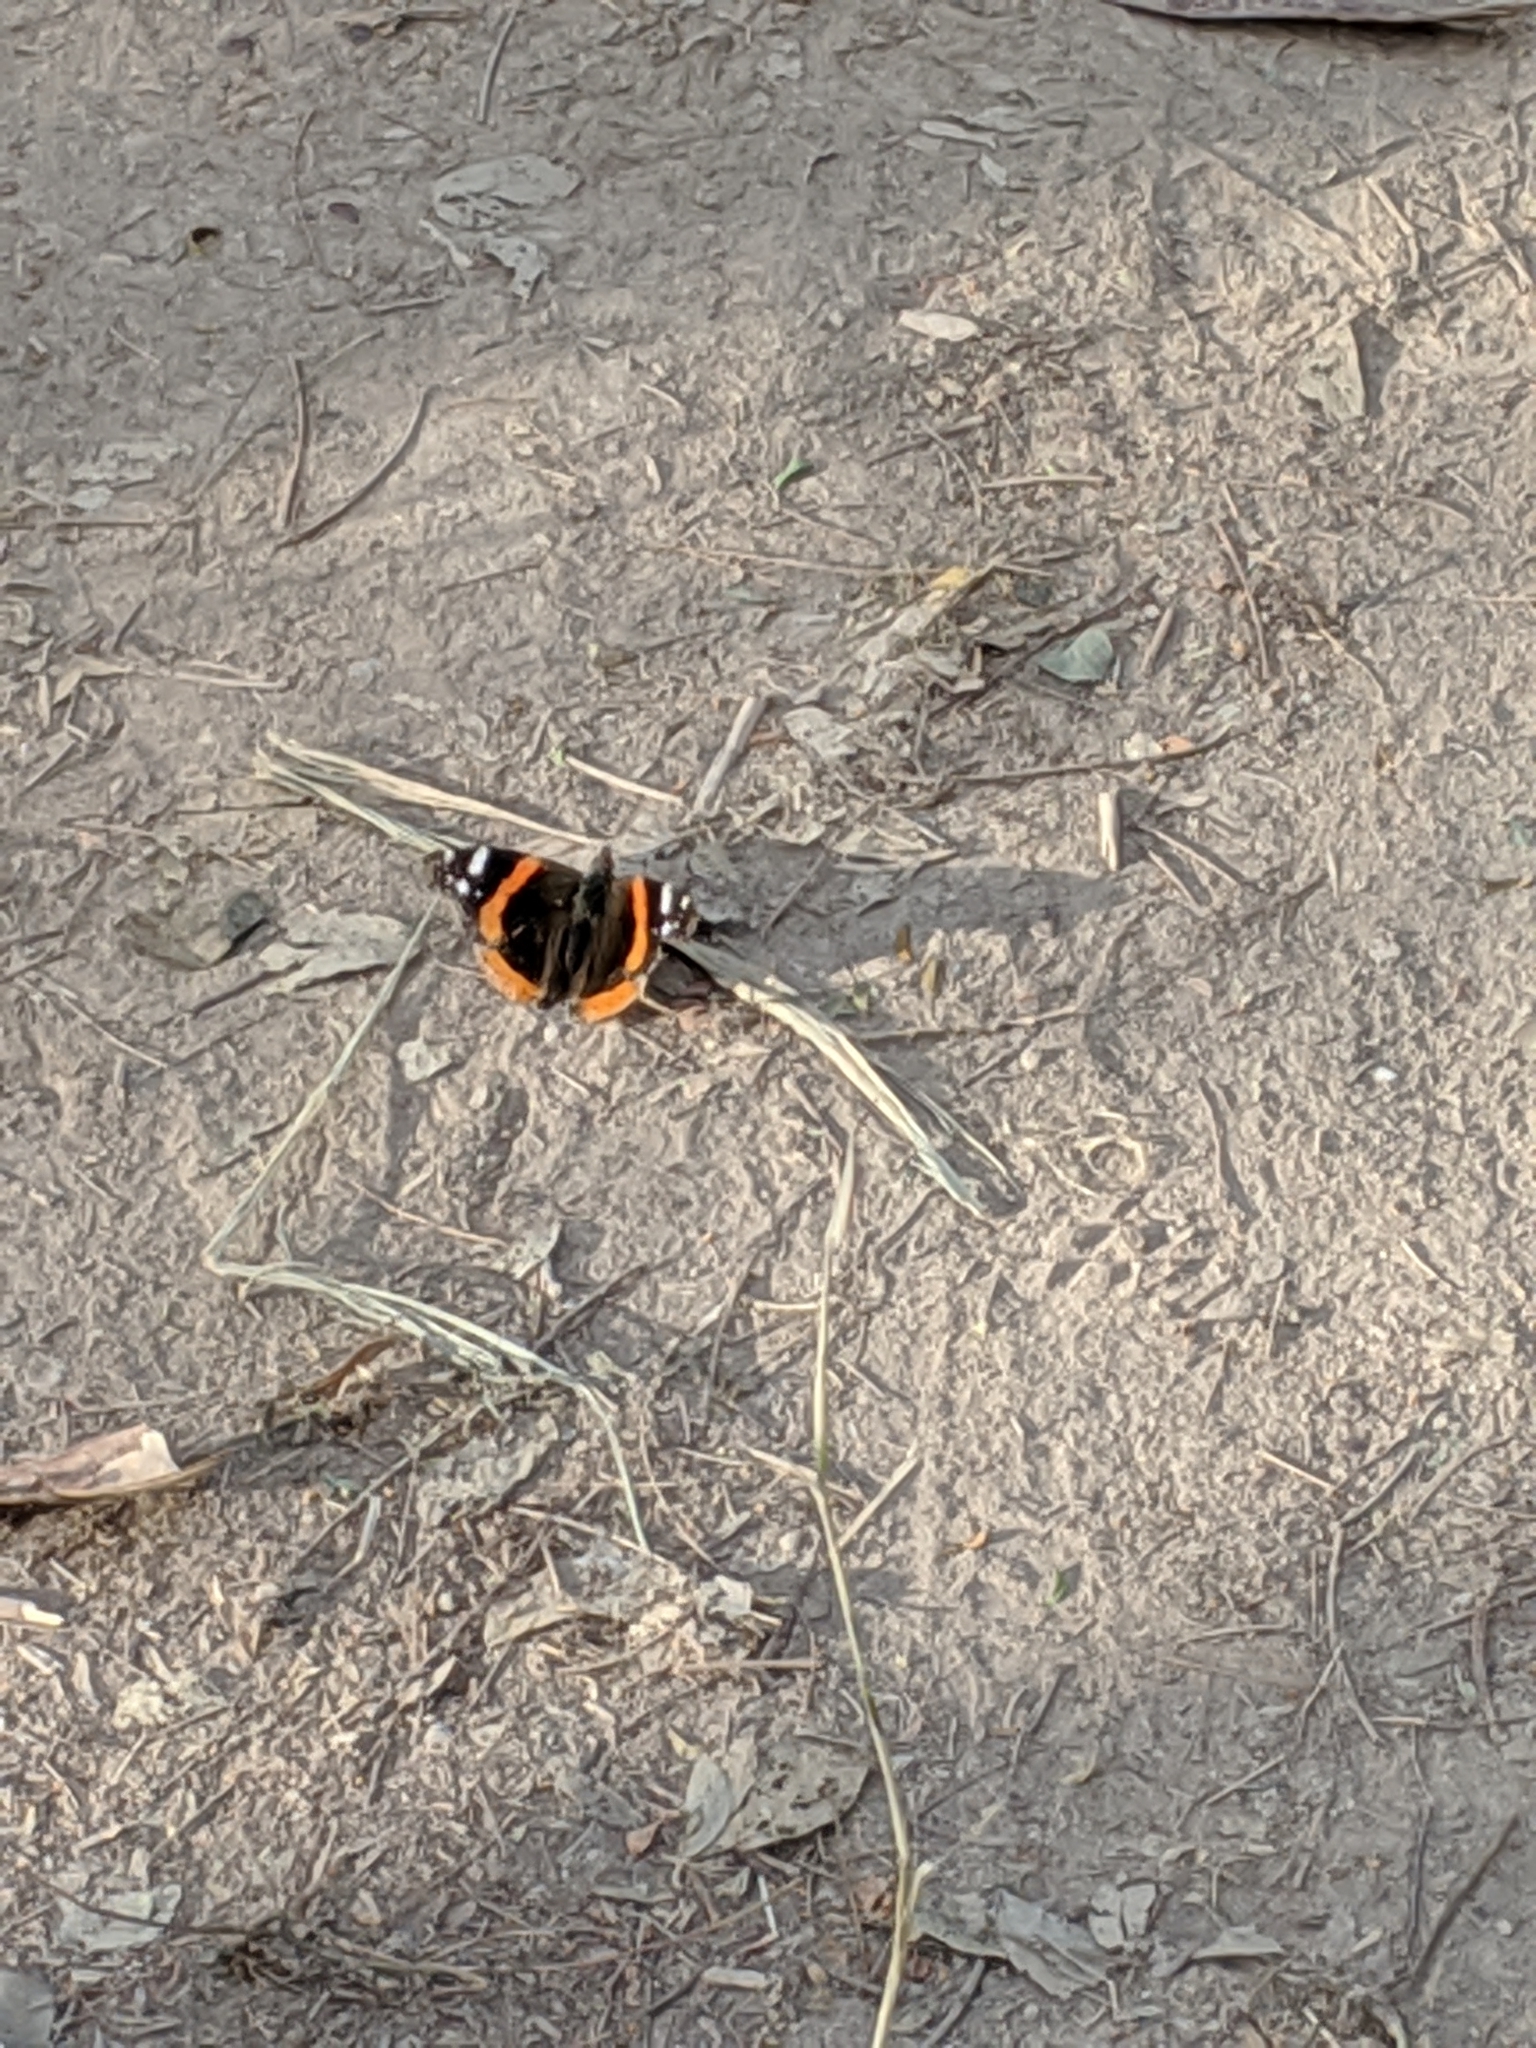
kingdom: Animalia
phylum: Arthropoda
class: Insecta
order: Lepidoptera
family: Nymphalidae
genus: Vanessa
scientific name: Vanessa atalanta
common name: Red admiral
